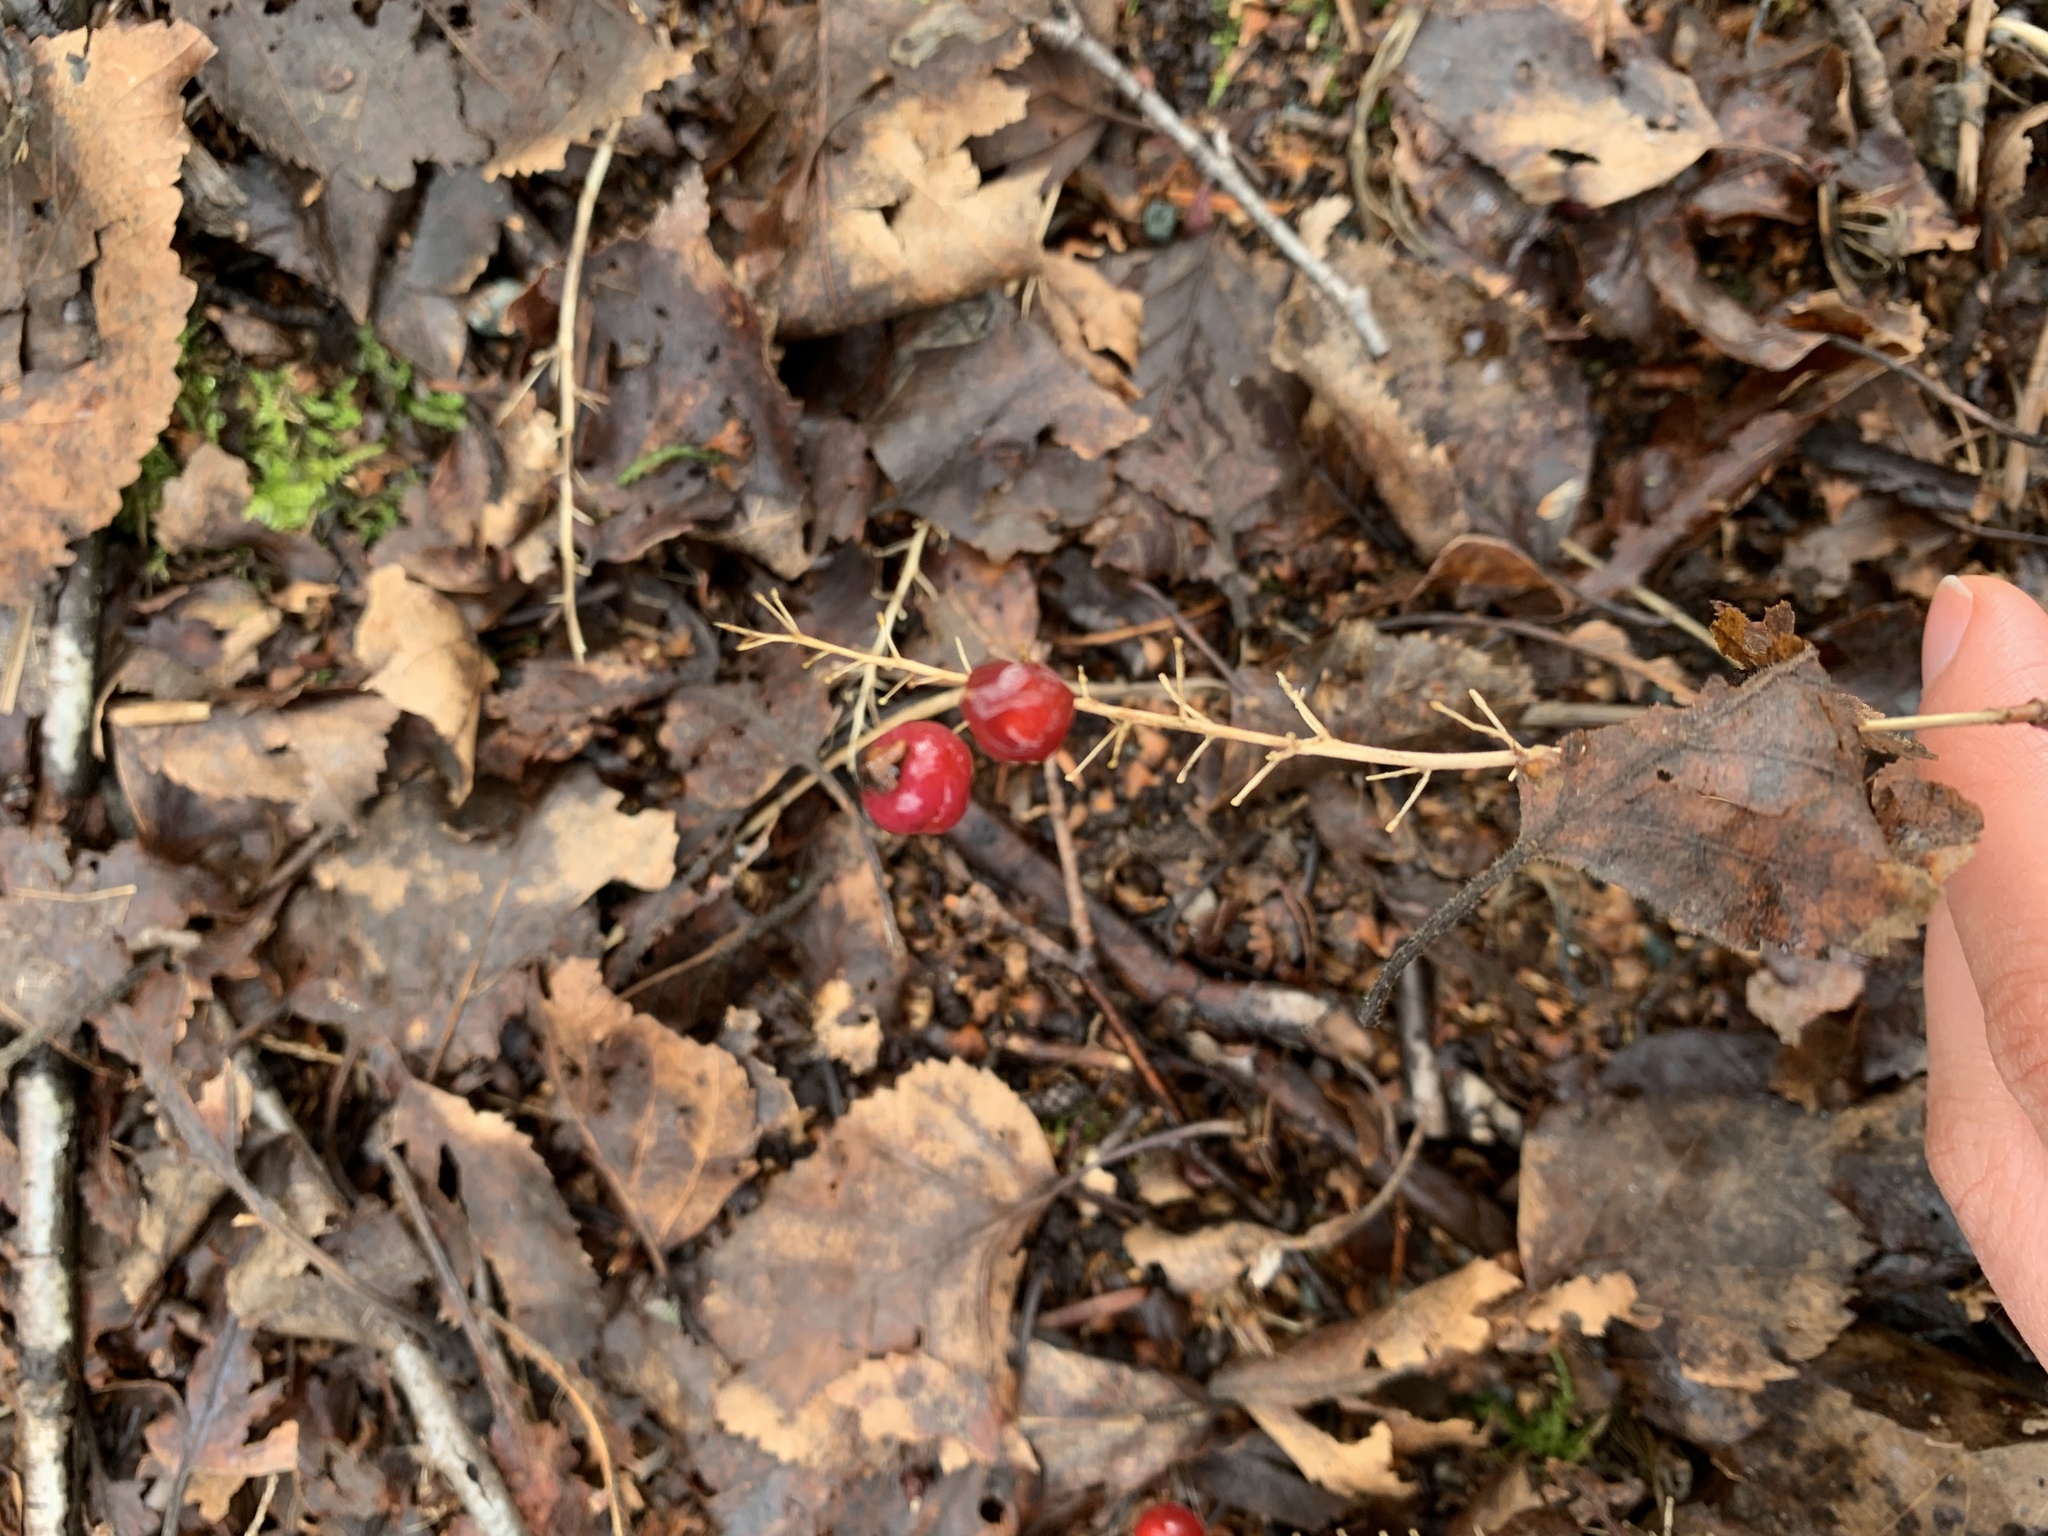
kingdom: Plantae
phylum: Tracheophyta
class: Liliopsida
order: Asparagales
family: Asparagaceae
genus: Maianthemum
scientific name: Maianthemum dilatatum
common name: False lily-of-the-valley
